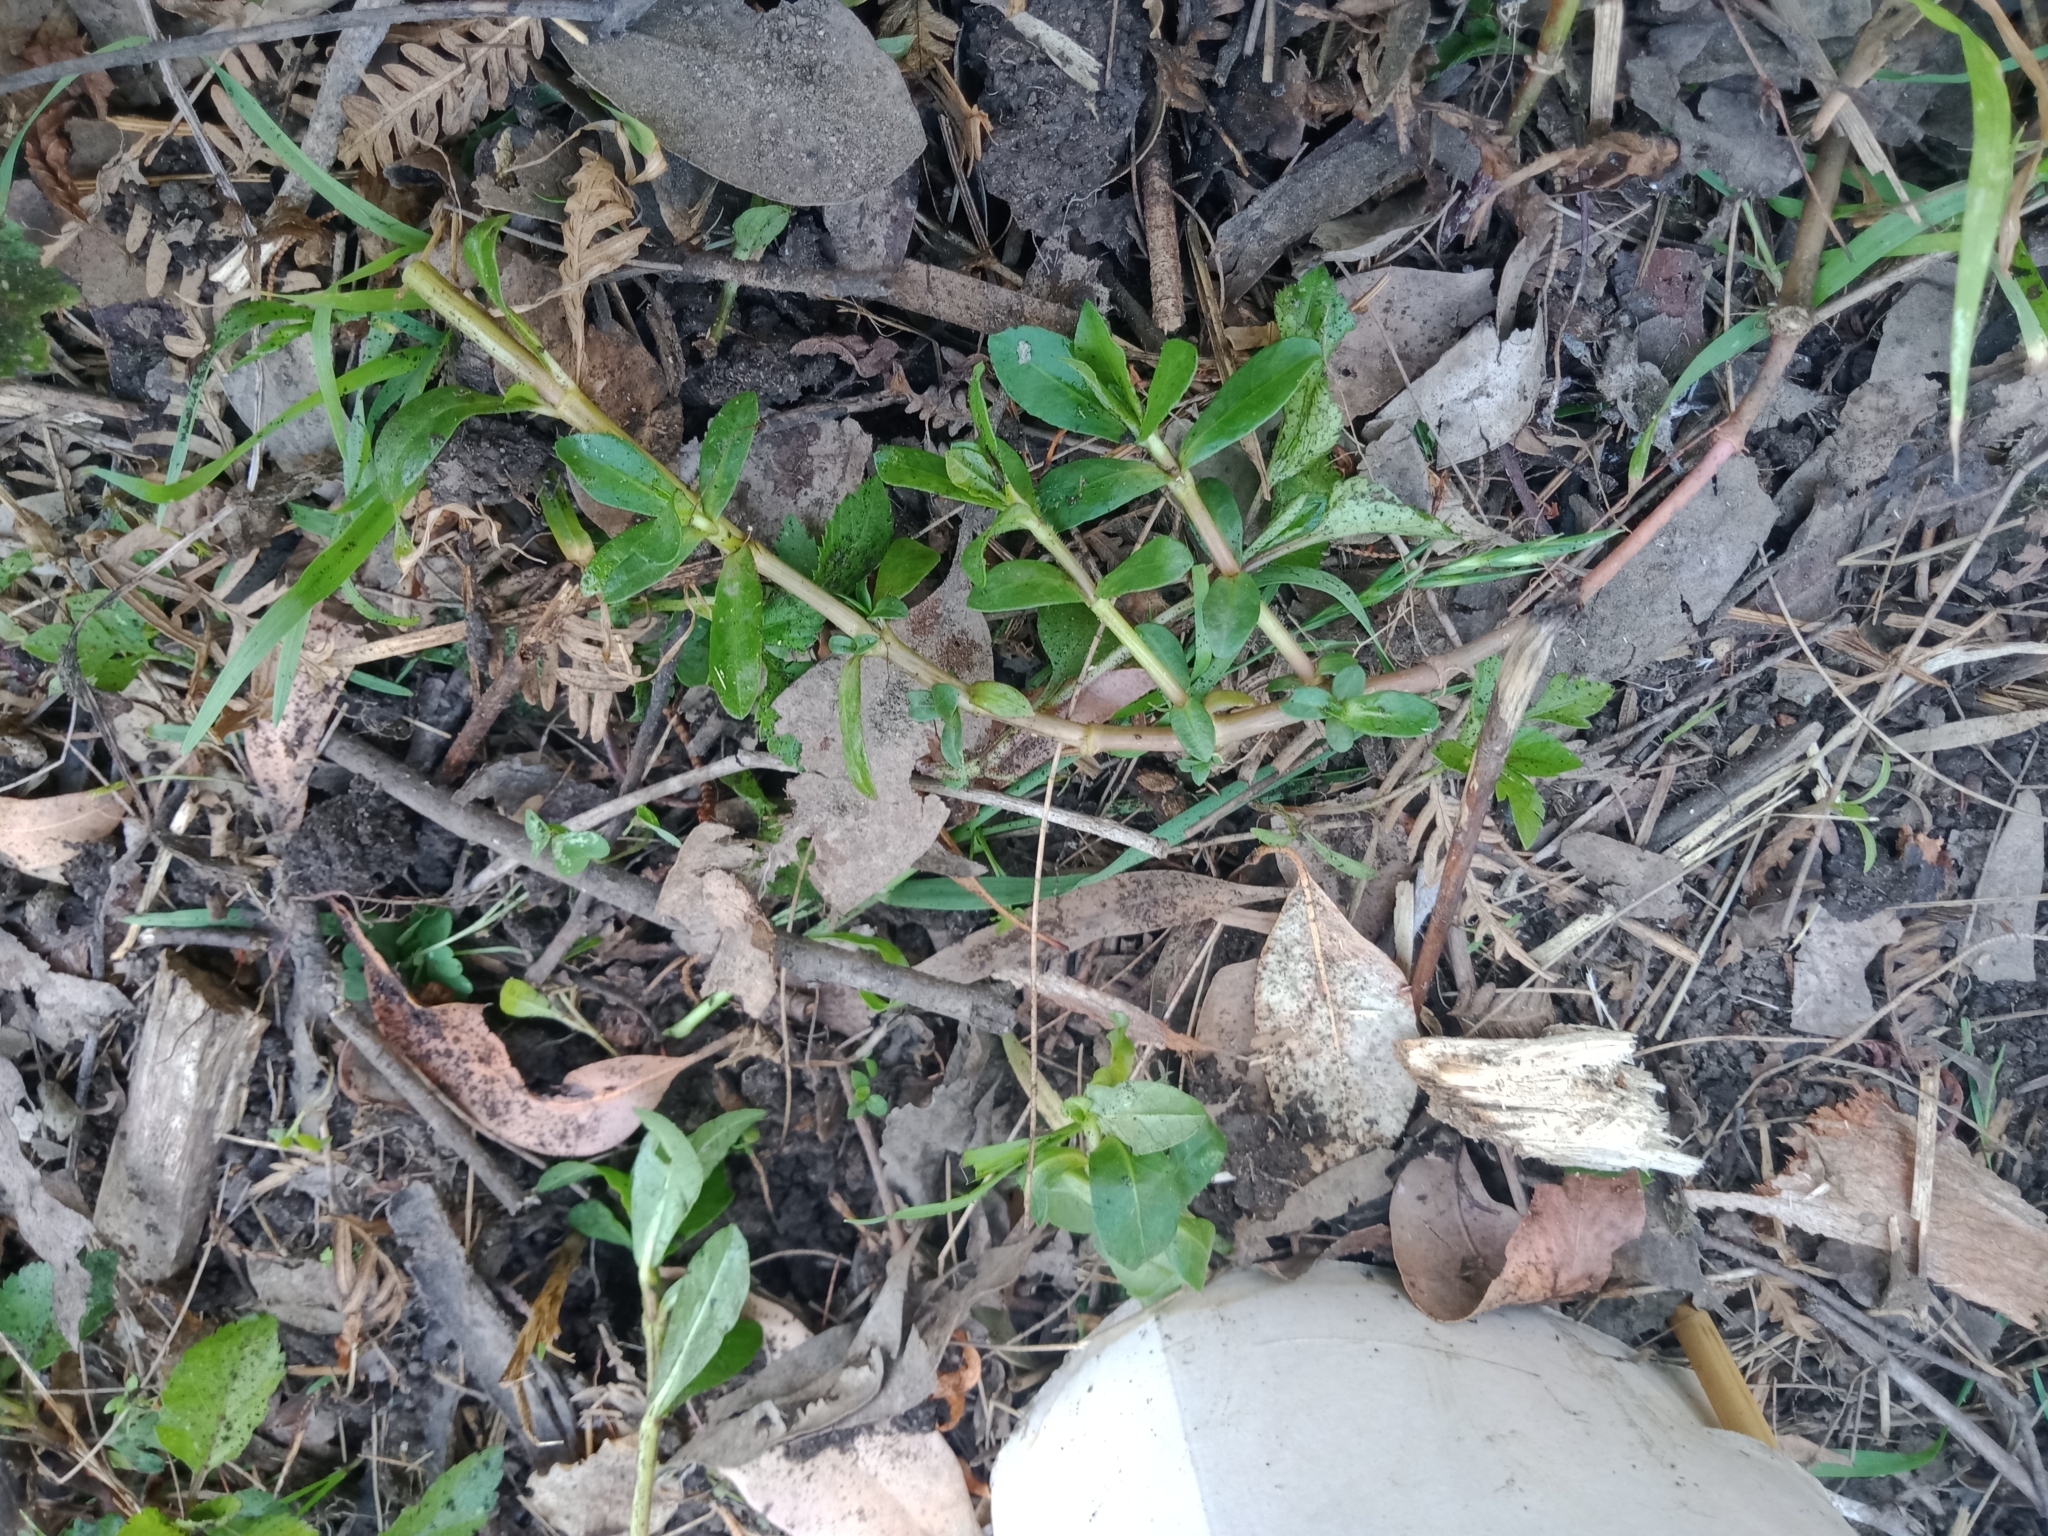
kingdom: Plantae
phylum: Tracheophyta
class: Magnoliopsida
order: Caryophyllales
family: Amaranthaceae
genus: Alternanthera
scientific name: Alternanthera philoxeroides
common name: Alligatorweed
